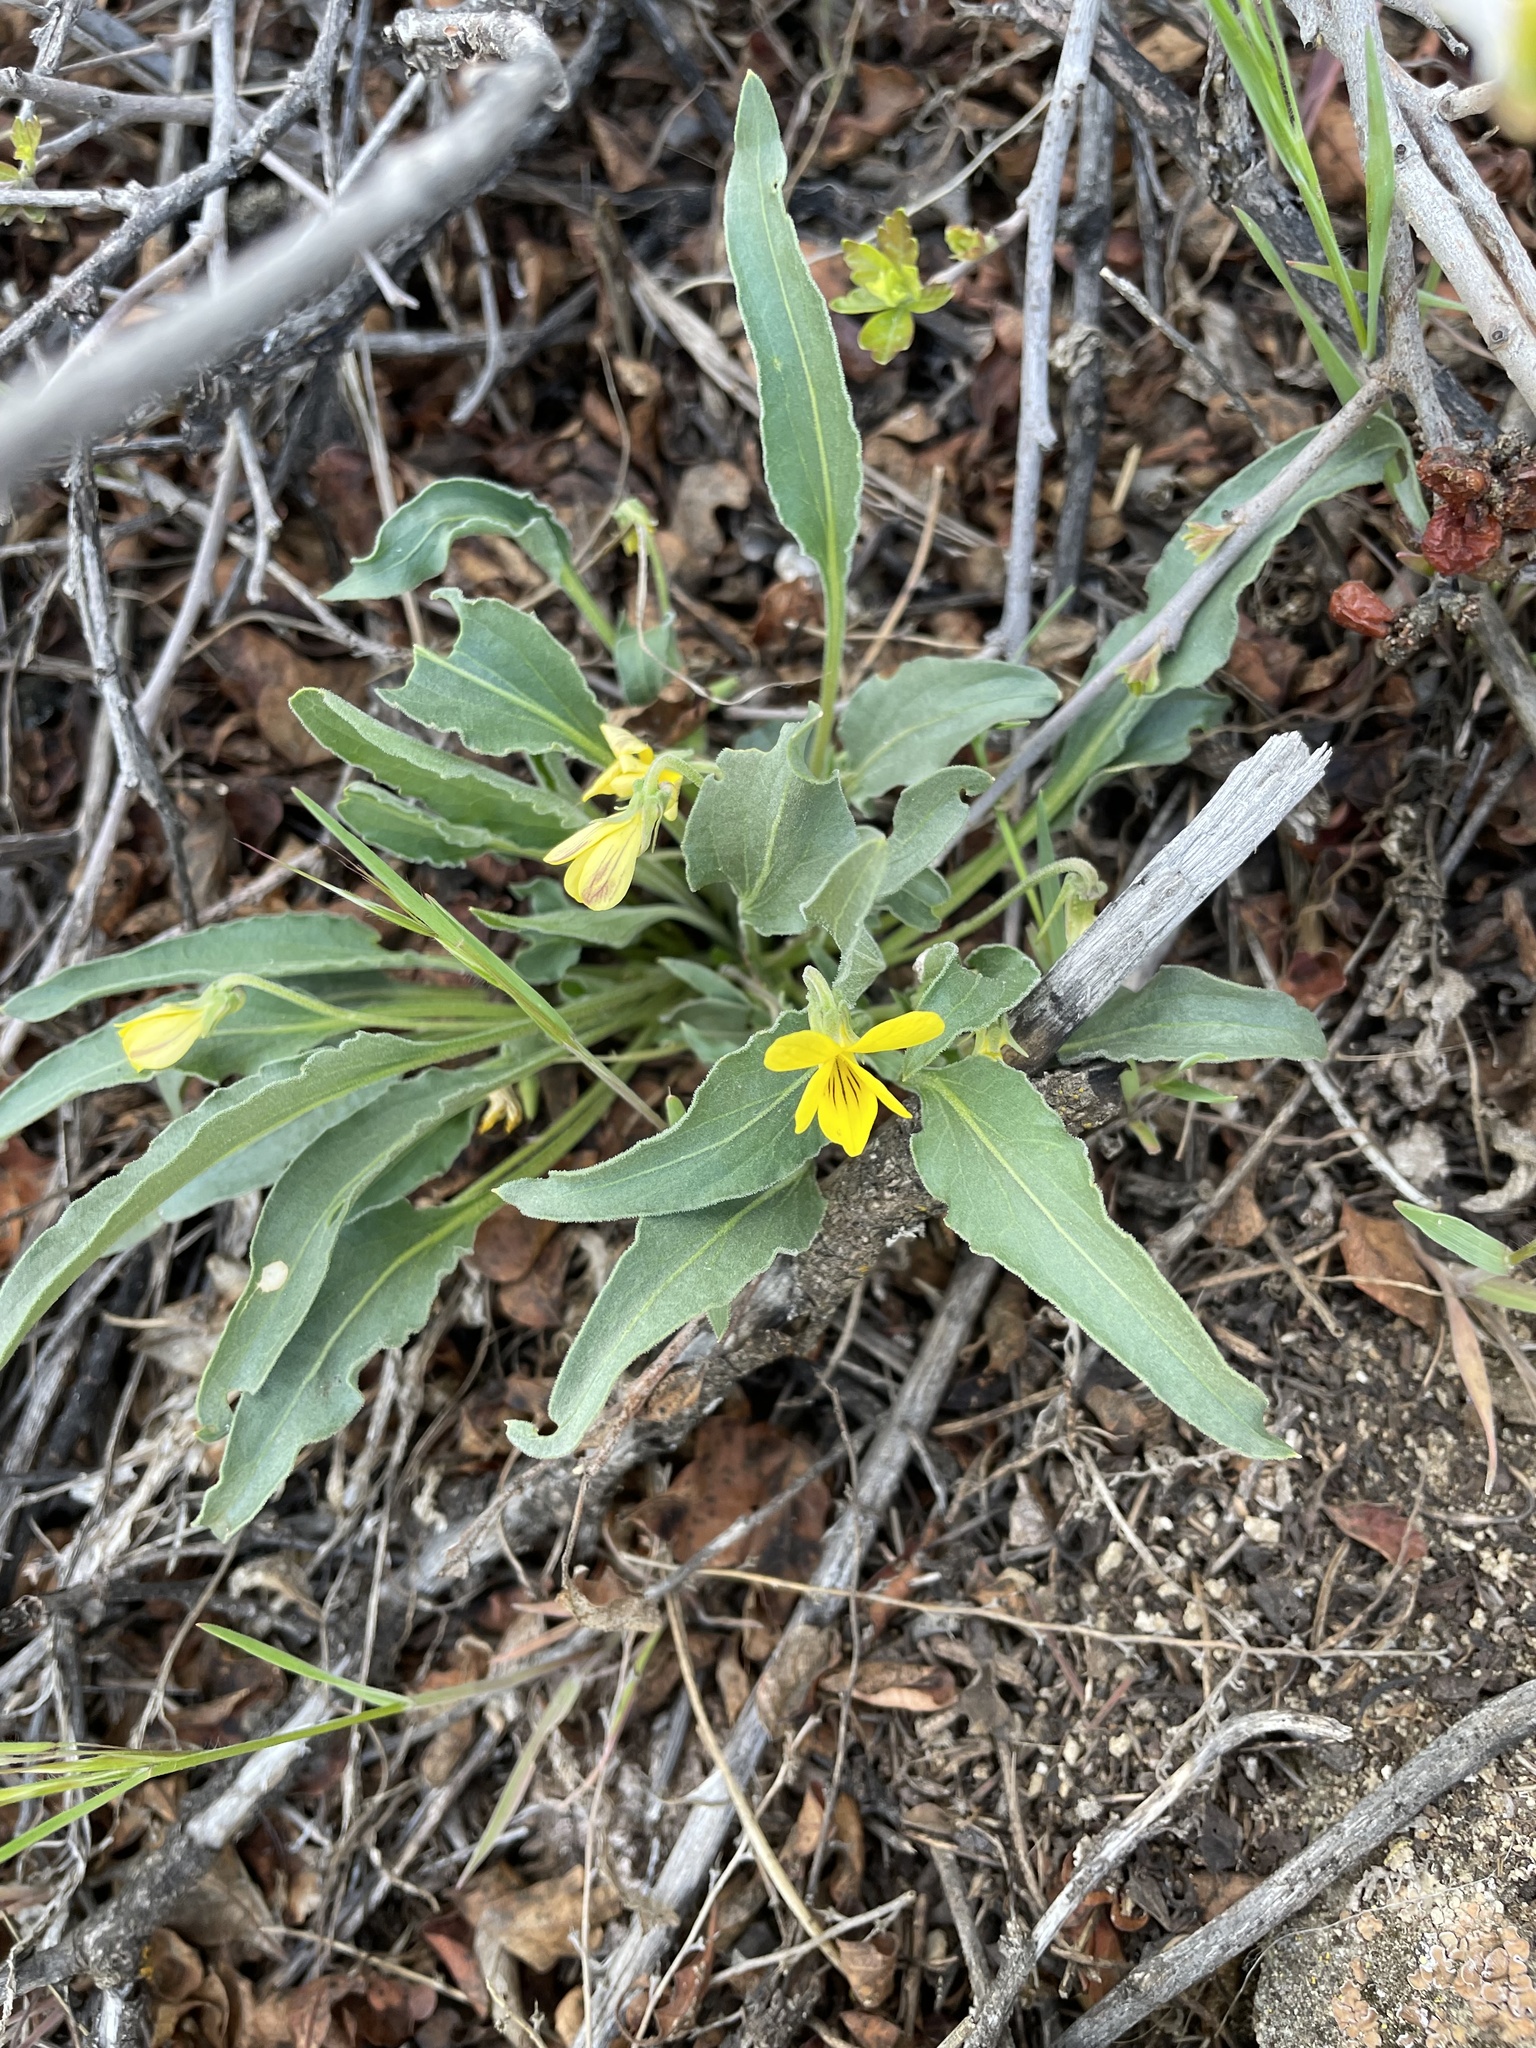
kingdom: Plantae
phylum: Tracheophyta
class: Magnoliopsida
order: Malpighiales
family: Violaceae
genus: Viola
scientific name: Viola nuttallii
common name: Yellow prairie violet
